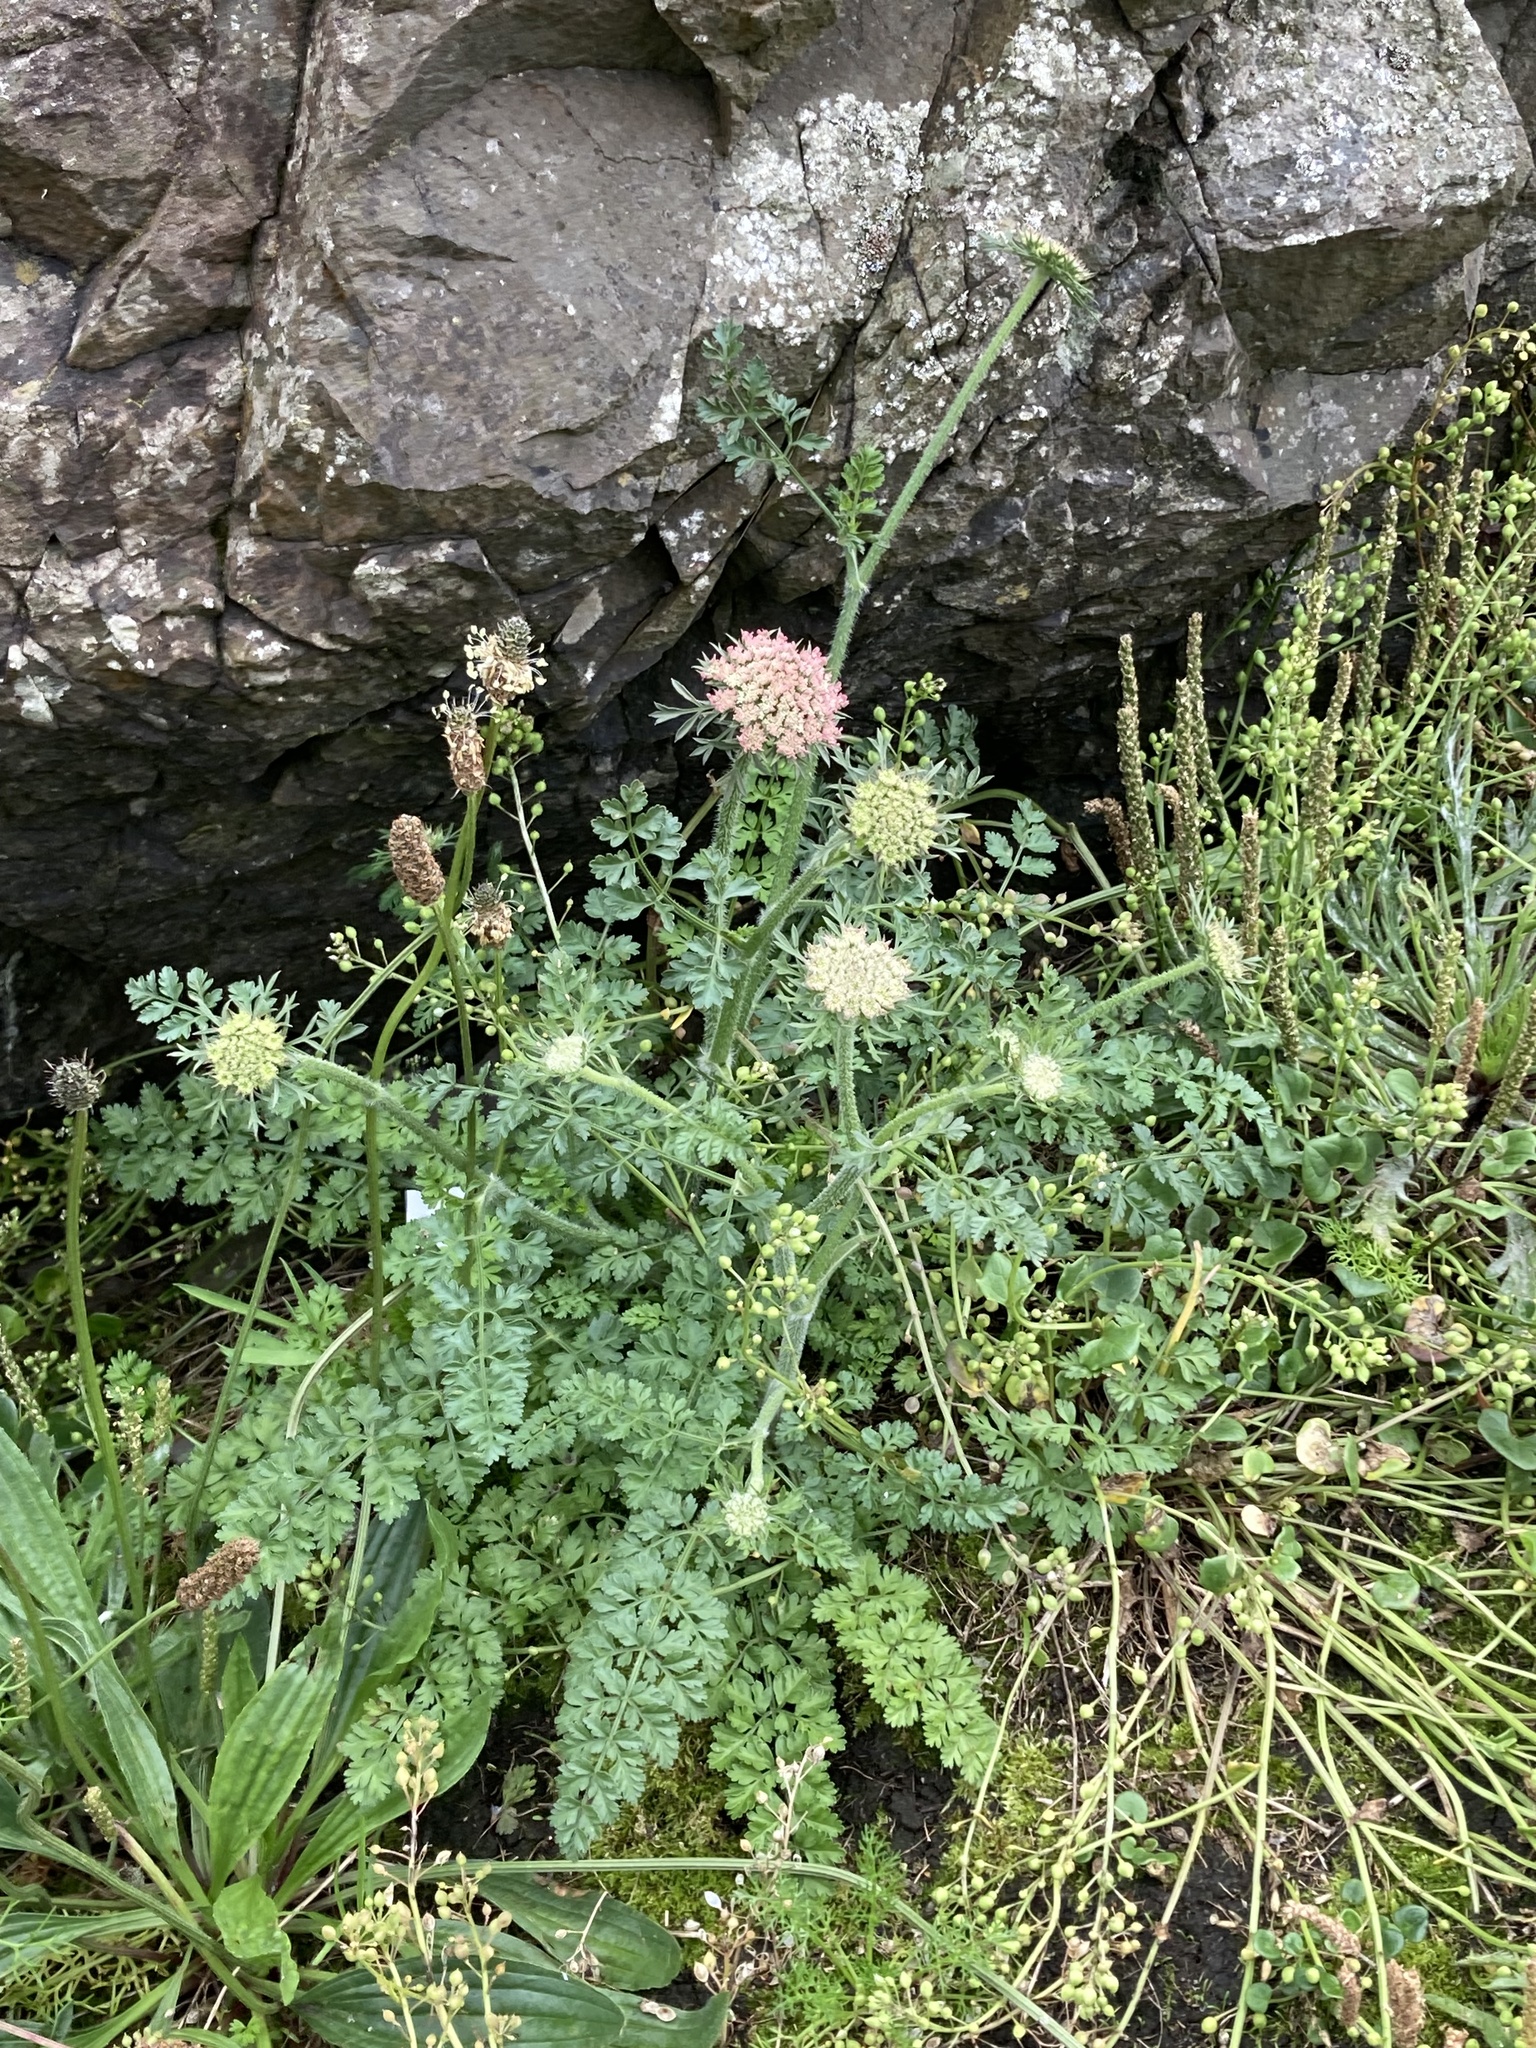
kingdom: Plantae
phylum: Tracheophyta
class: Magnoliopsida
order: Apiales
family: Apiaceae
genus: Daucus
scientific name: Daucus carota
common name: Wild carrot
